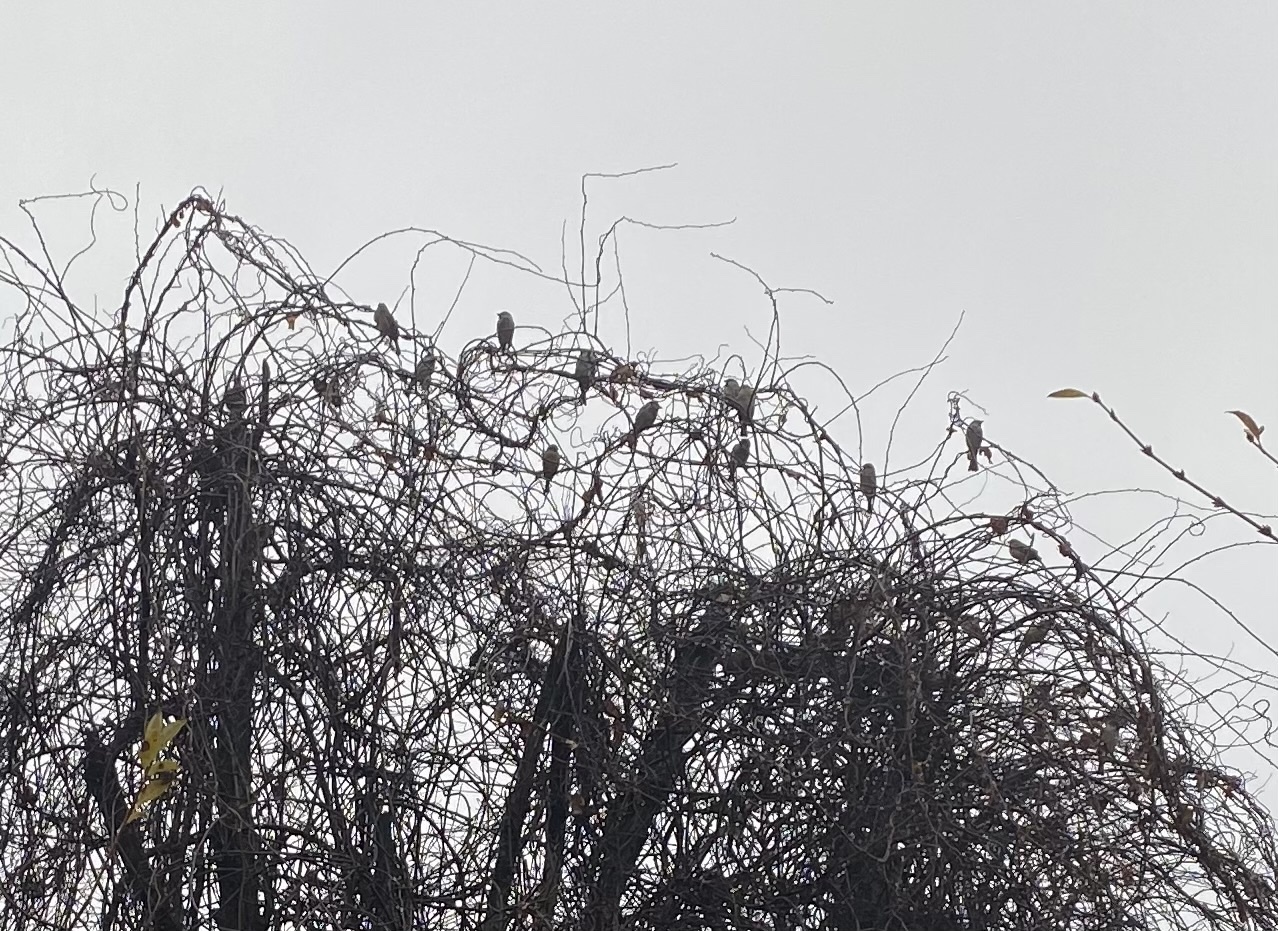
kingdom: Animalia
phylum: Chordata
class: Aves
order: Passeriformes
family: Passeridae
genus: Passer
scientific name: Passer domesticus
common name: House sparrow
